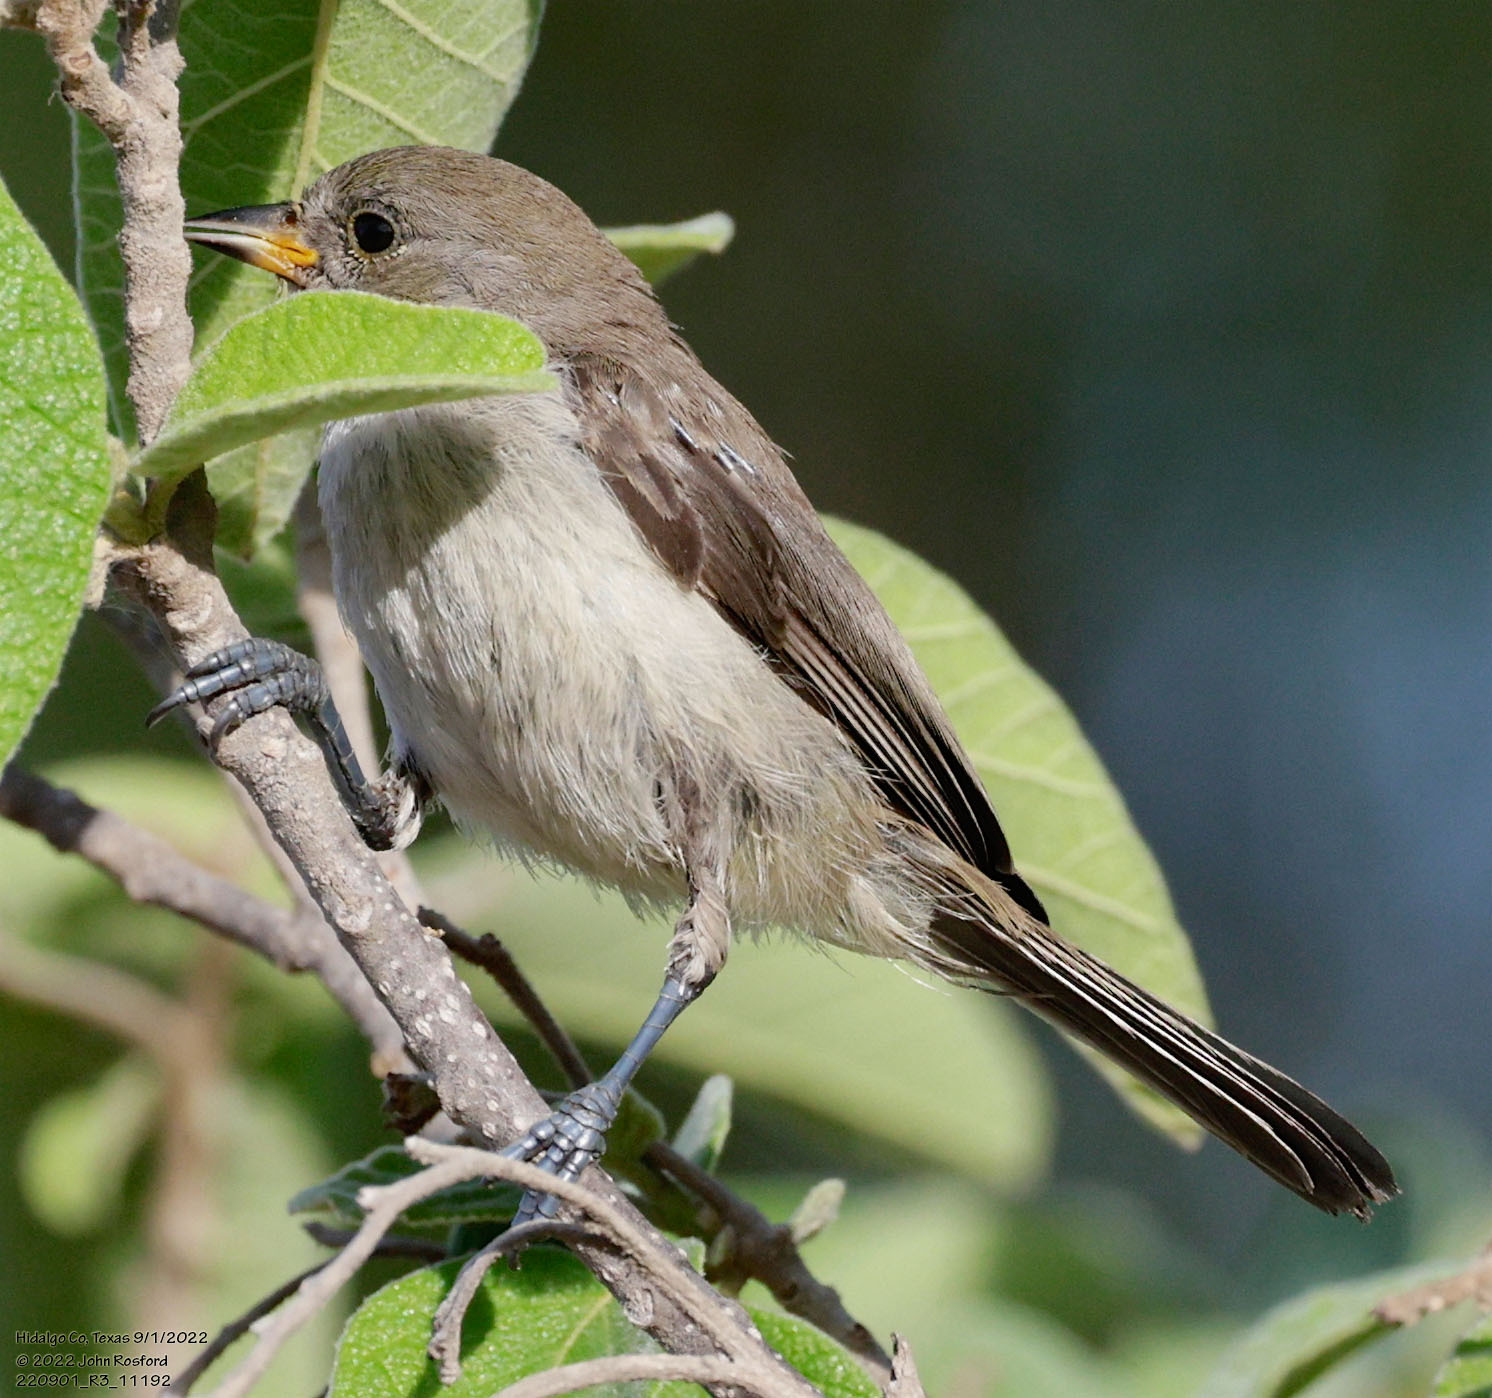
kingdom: Animalia
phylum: Chordata
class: Aves
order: Passeriformes
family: Remizidae
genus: Auriparus
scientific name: Auriparus flaviceps
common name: Verdin
